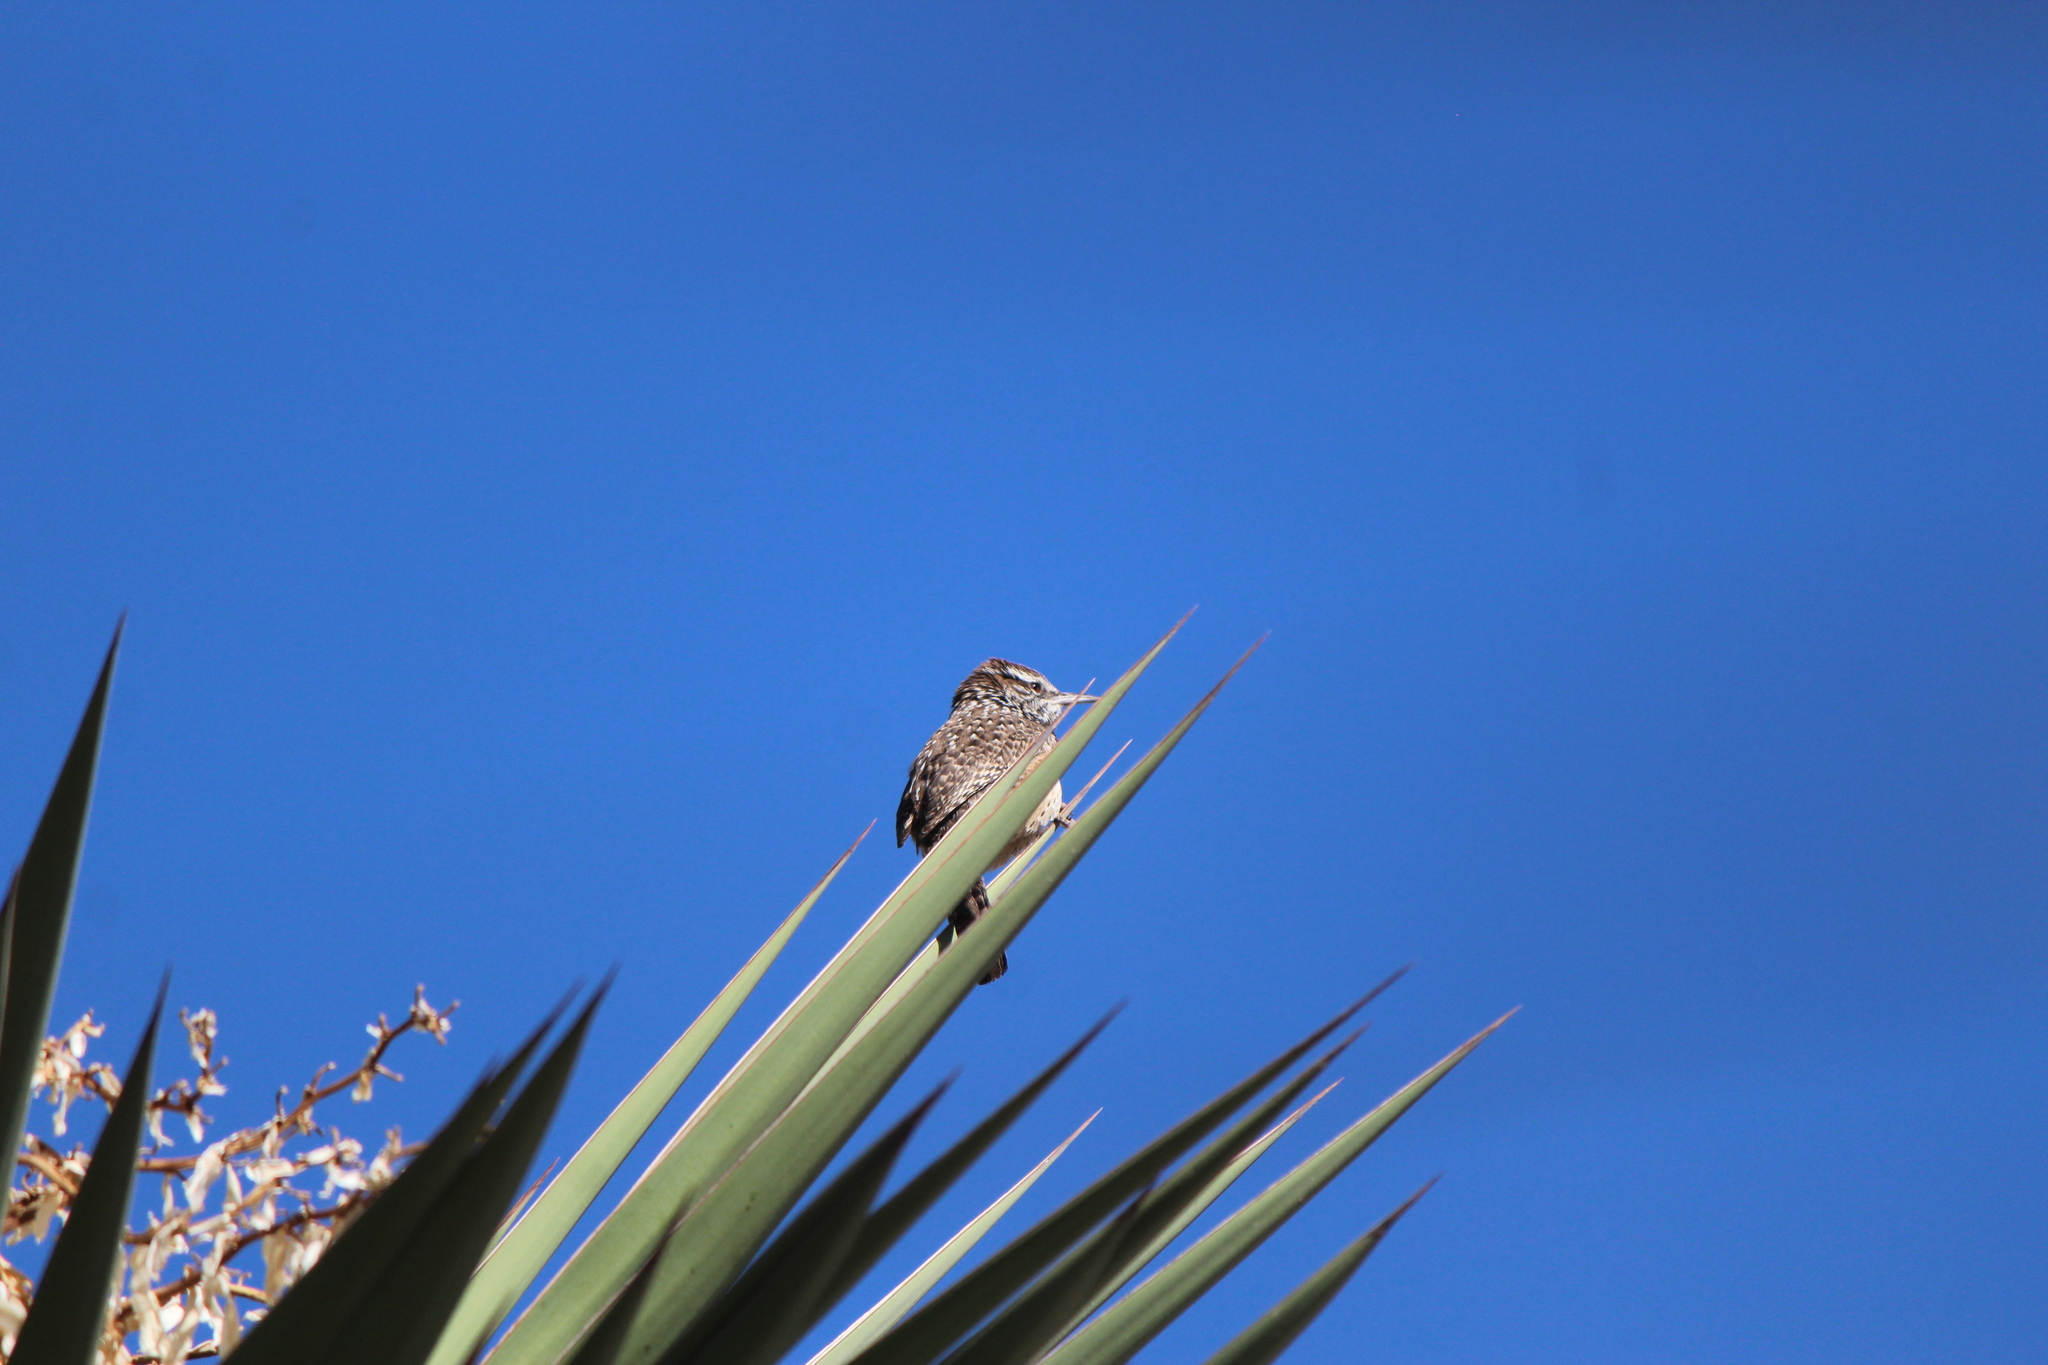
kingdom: Animalia
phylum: Chordata
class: Aves
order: Passeriformes
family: Troglodytidae
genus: Campylorhynchus
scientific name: Campylorhynchus brunneicapillus
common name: Cactus wren
